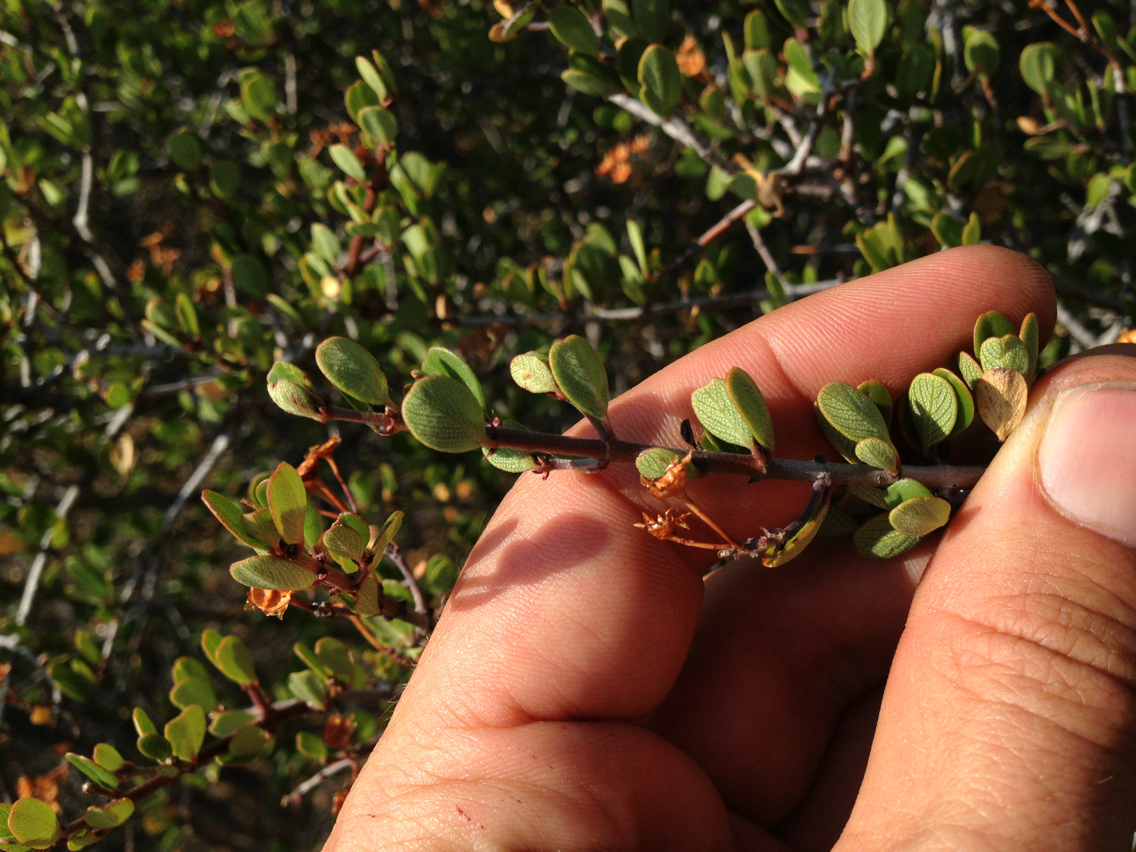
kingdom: Plantae
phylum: Tracheophyta
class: Magnoliopsida
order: Rosales
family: Rhamnaceae
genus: Ceanothus
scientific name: Ceanothus cuneatus
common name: Cuneate ceanothus
